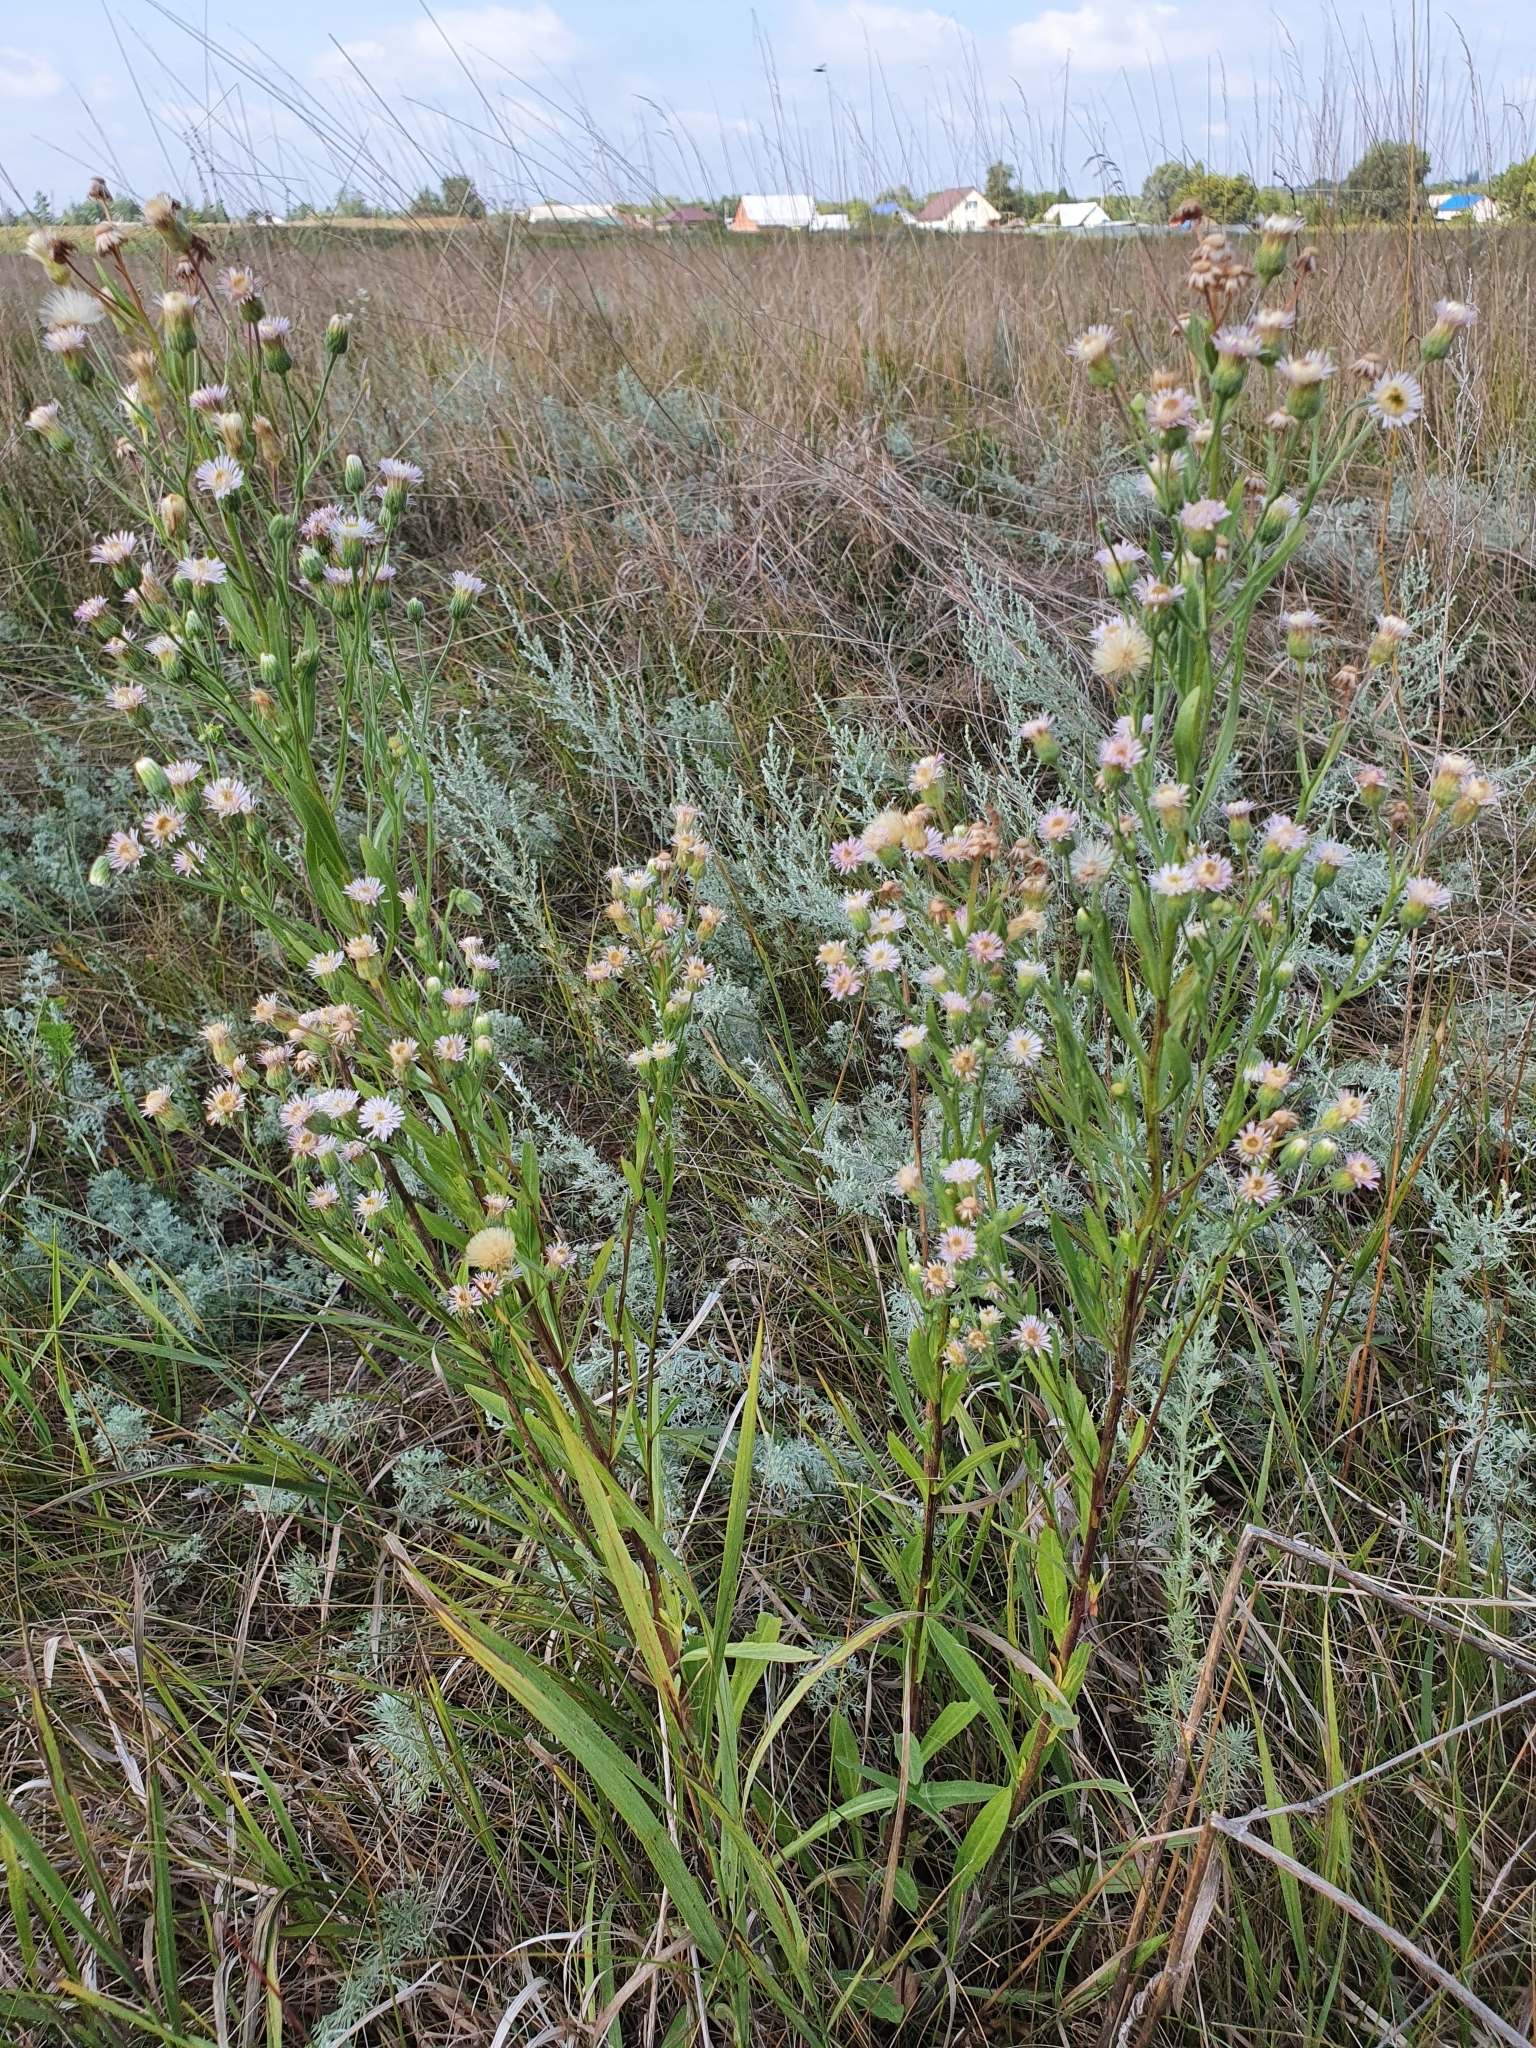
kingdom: Plantae
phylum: Tracheophyta
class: Magnoliopsida
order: Asterales
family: Asteraceae
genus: Erigeron
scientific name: Erigeron acris
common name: Blue fleabane
